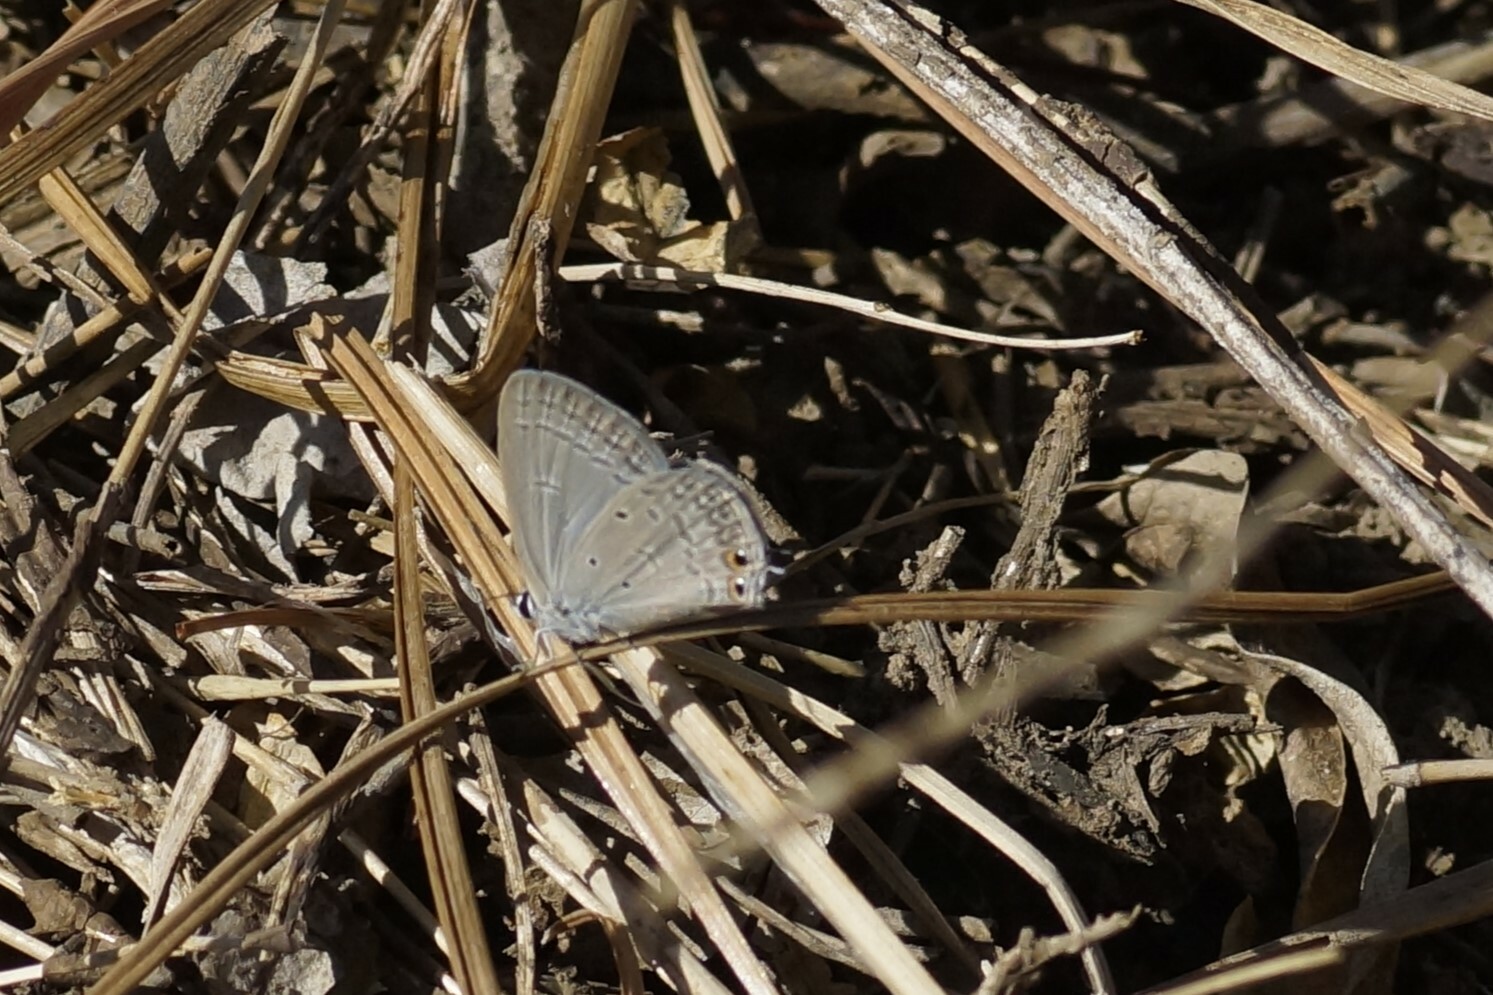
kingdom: Animalia
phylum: Arthropoda
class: Insecta
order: Lepidoptera
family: Lycaenidae
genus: Euchrysops
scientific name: Euchrysops cnejus
